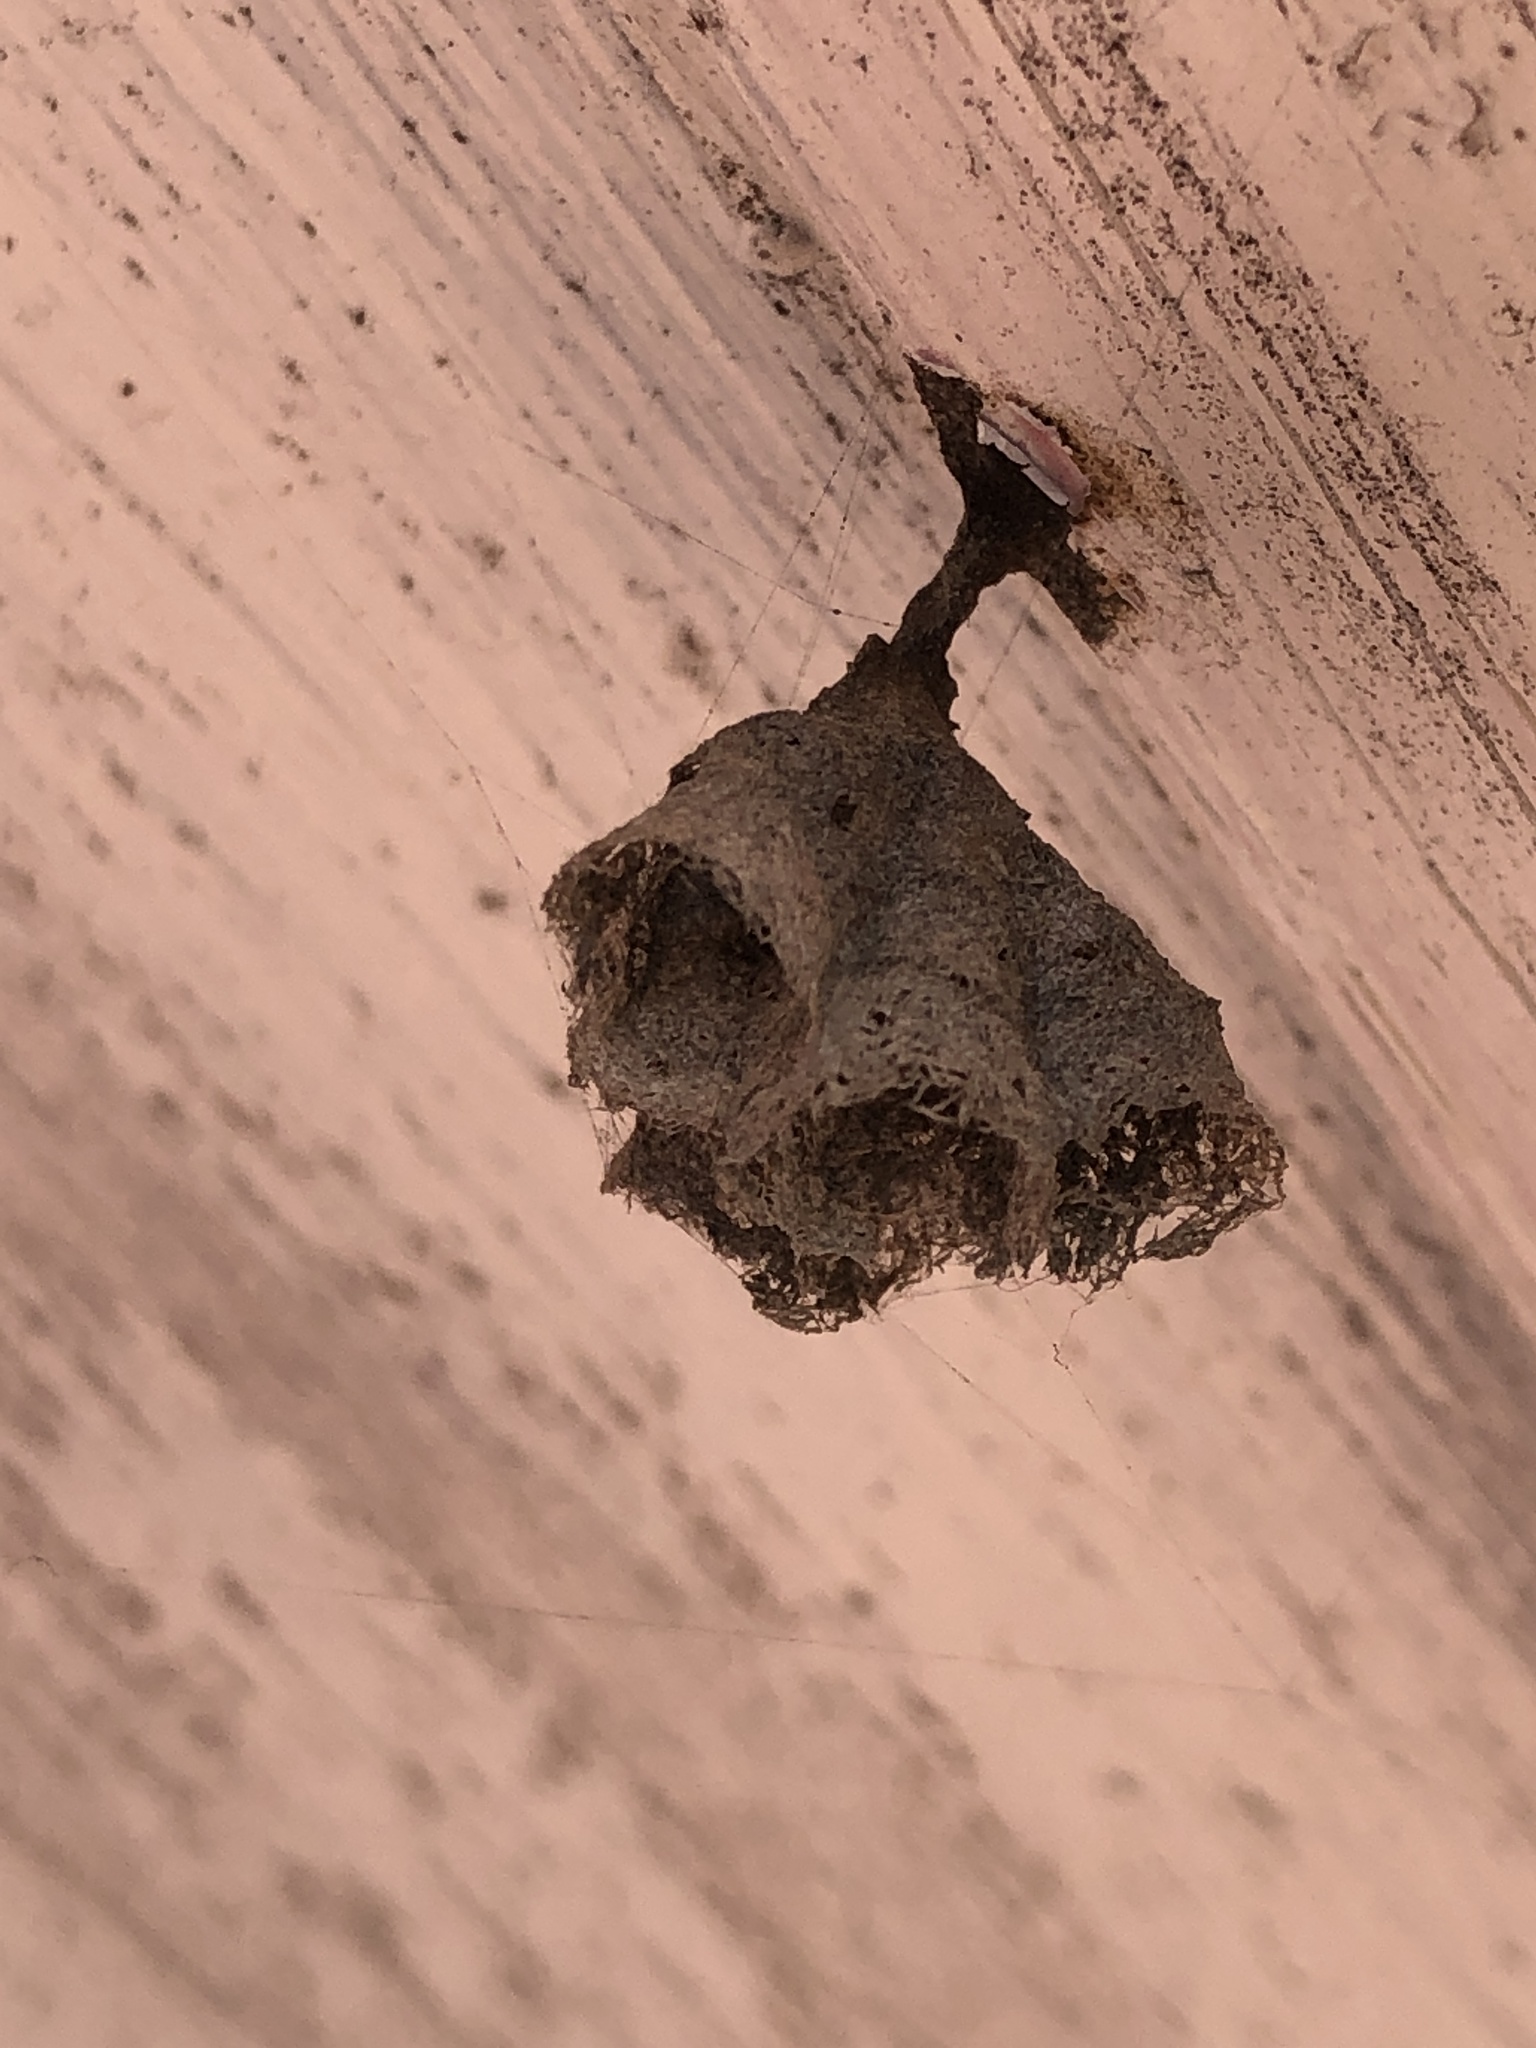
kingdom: Animalia
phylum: Arthropoda
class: Insecta
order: Hymenoptera
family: Vespidae
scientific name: Vespidae
